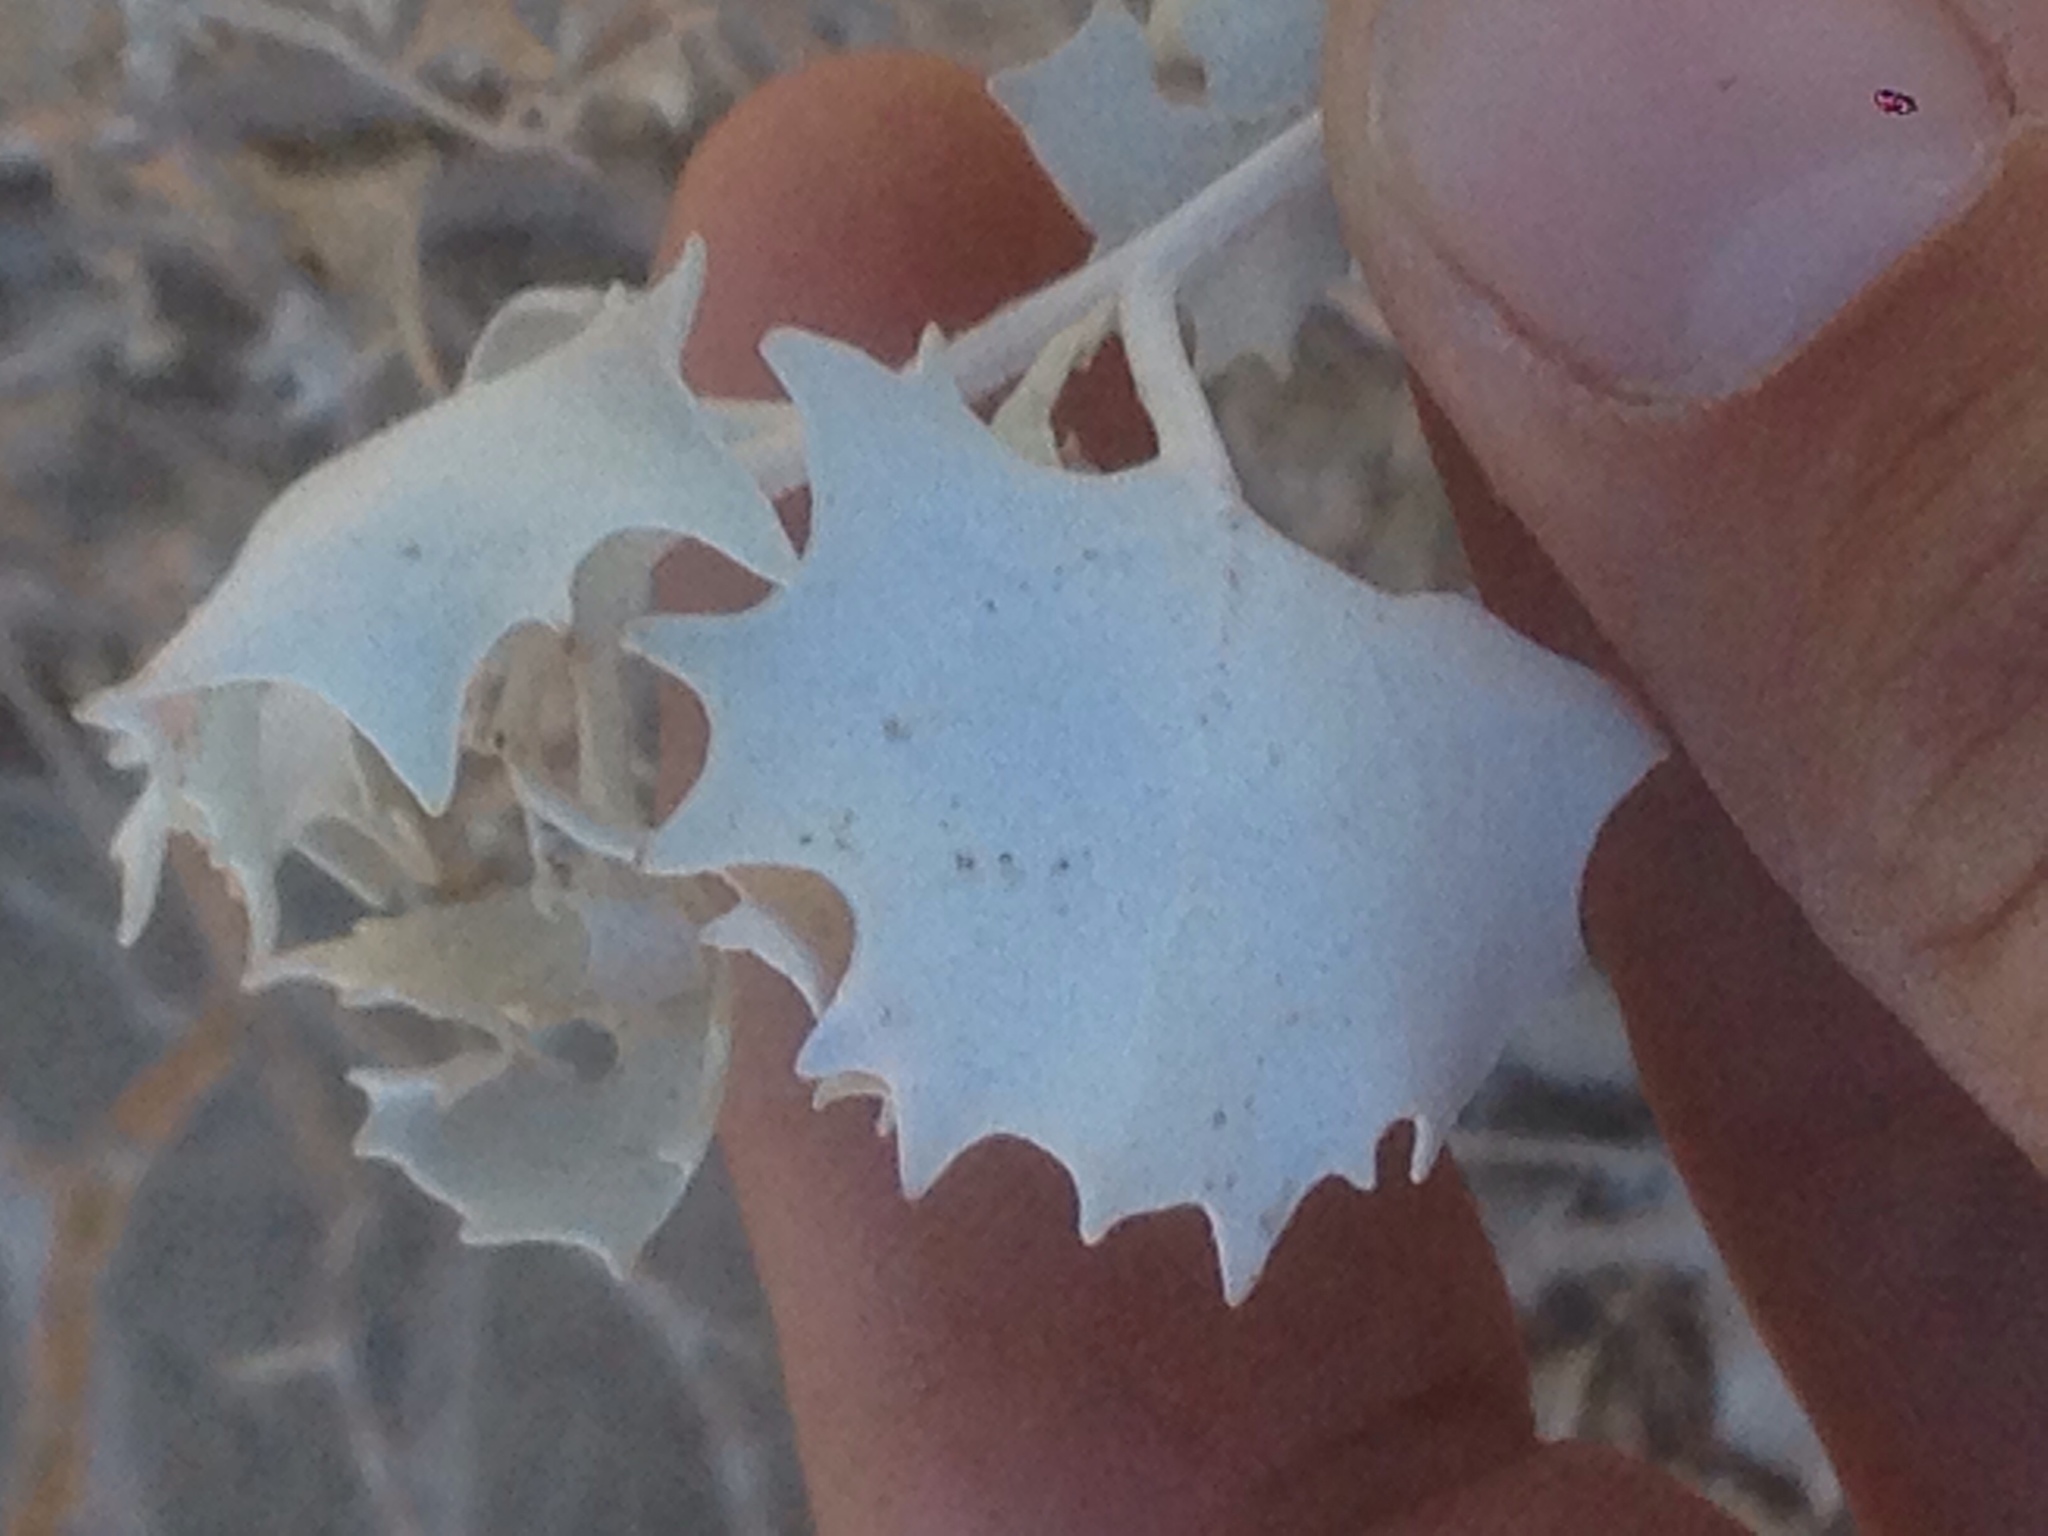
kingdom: Plantae
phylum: Tracheophyta
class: Magnoliopsida
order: Caryophyllales
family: Amaranthaceae
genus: Atriplex
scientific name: Atriplex hymenelytra
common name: Desert-holly
